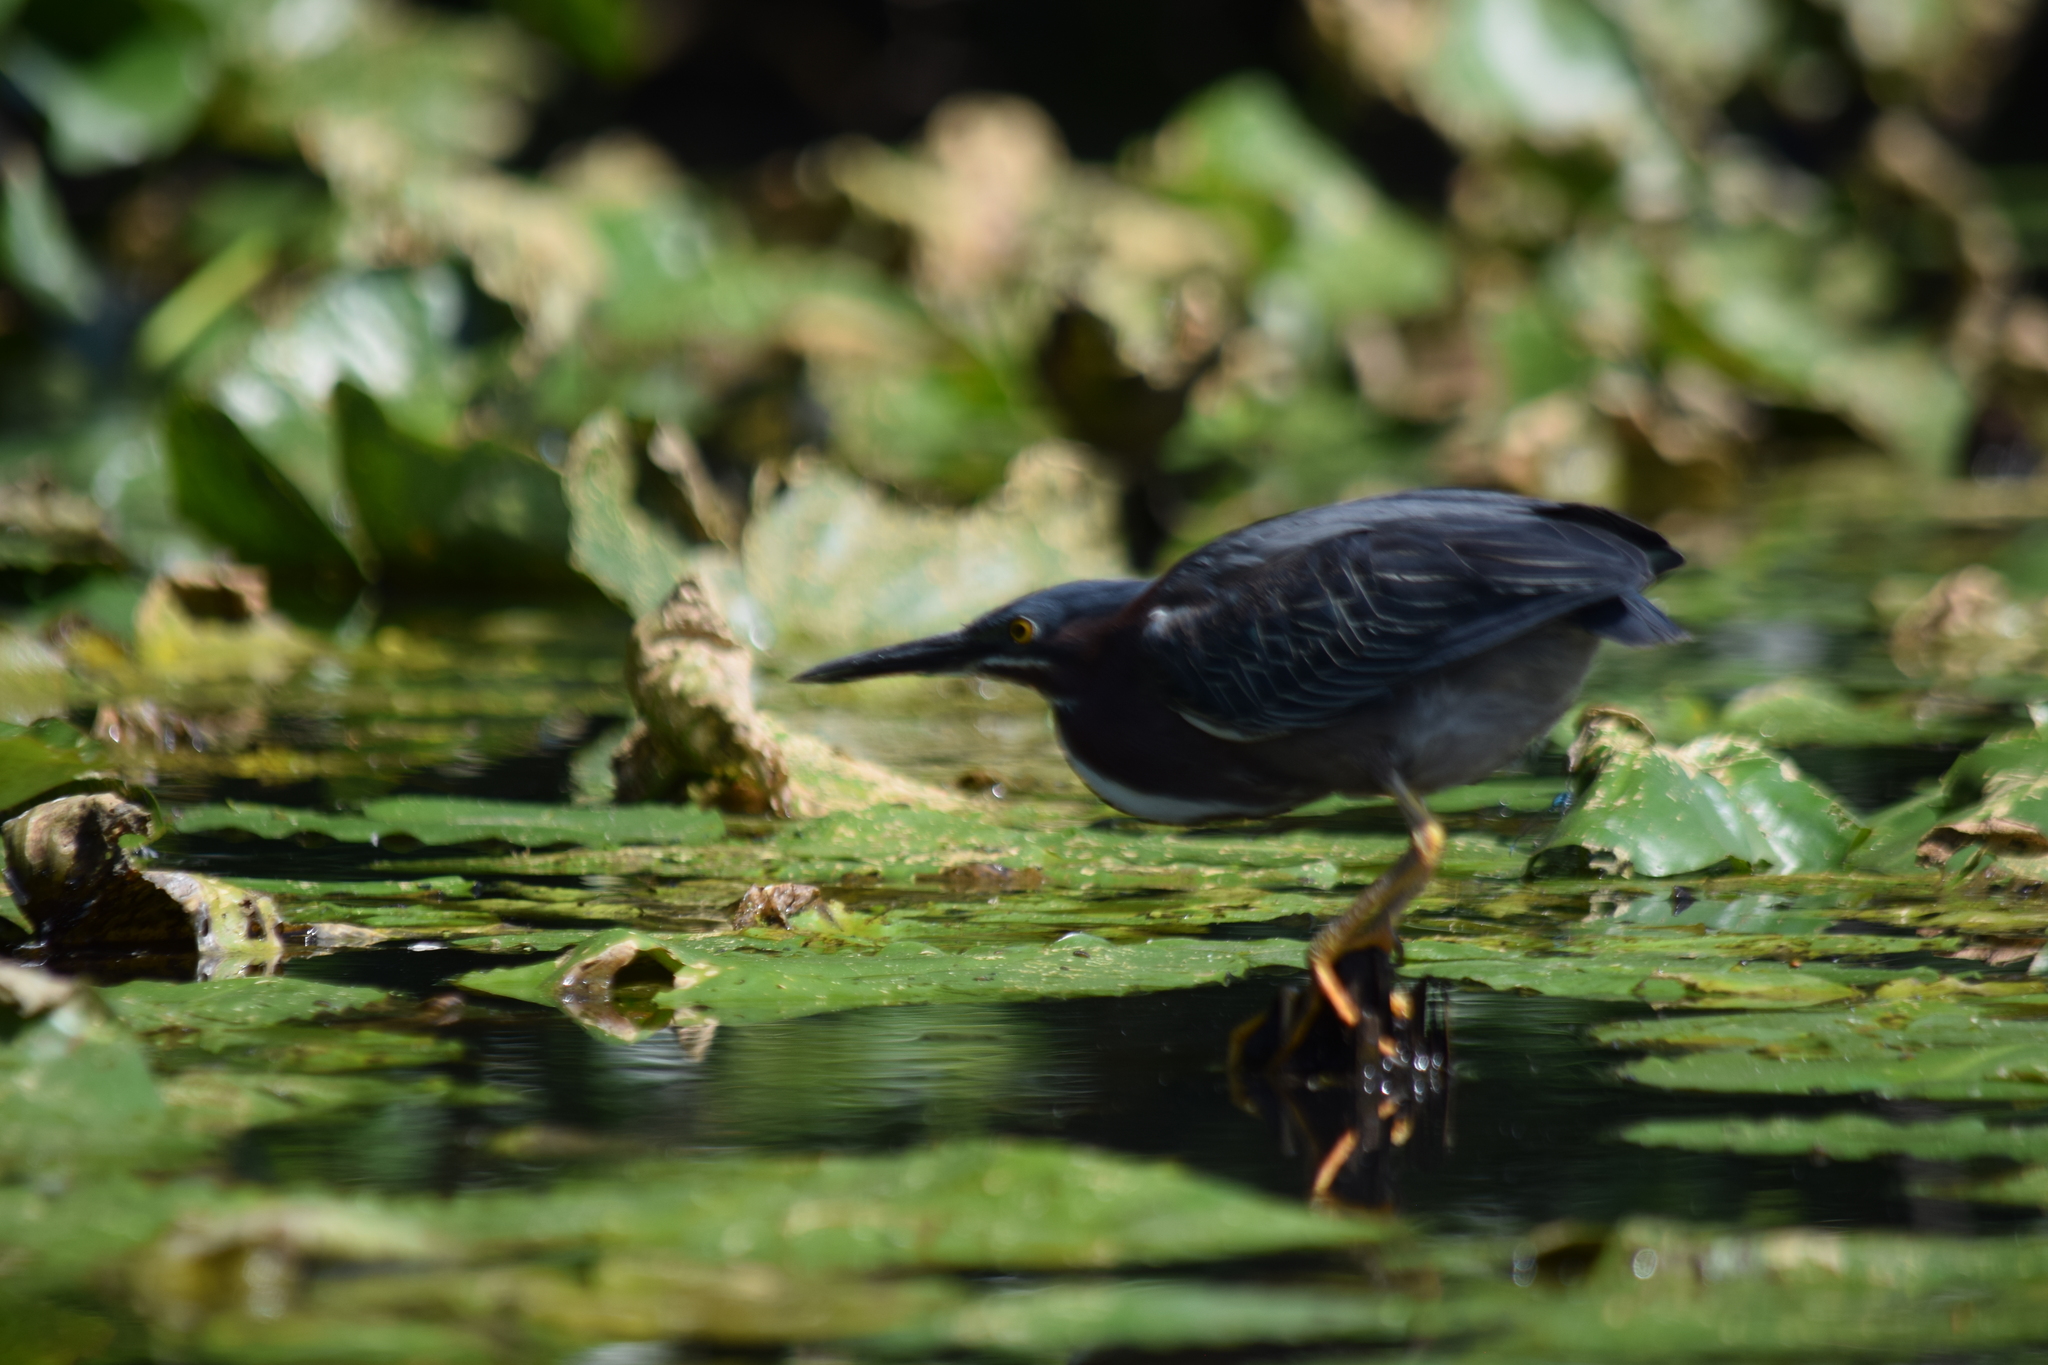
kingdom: Animalia
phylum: Chordata
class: Aves
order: Pelecaniformes
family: Ardeidae
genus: Butorides
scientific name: Butorides virescens
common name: Green heron
